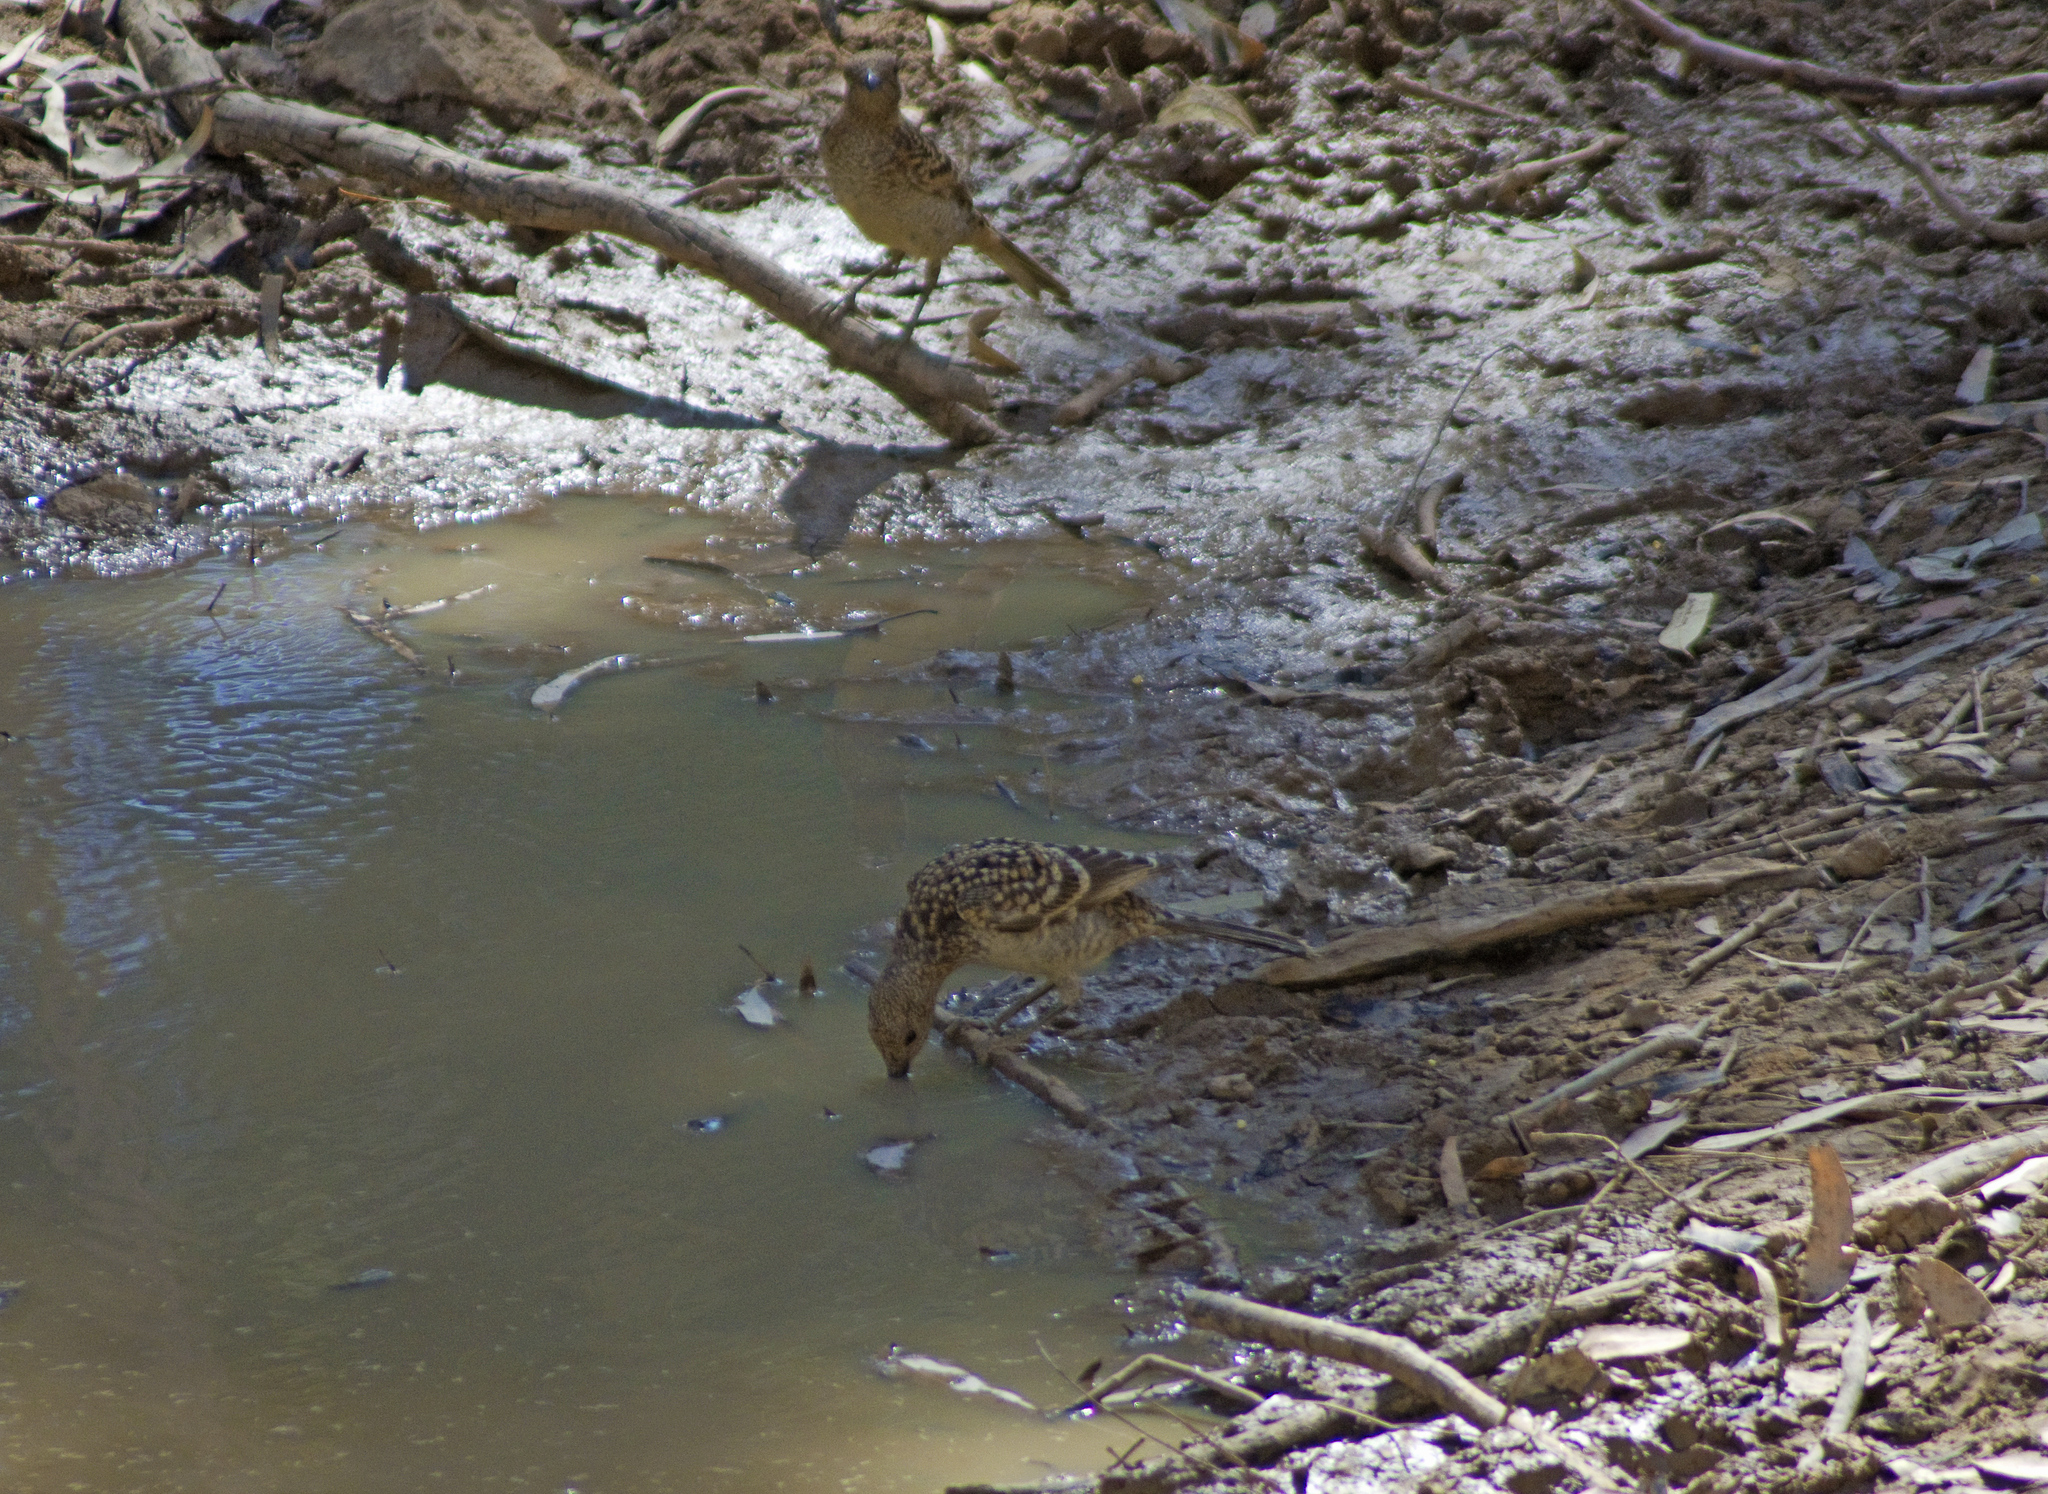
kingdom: Animalia
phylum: Chordata
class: Aves
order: Passeriformes
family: Ptilonorhynchidae
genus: Chlamydera
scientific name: Chlamydera maculata
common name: Spotted bowerbird
